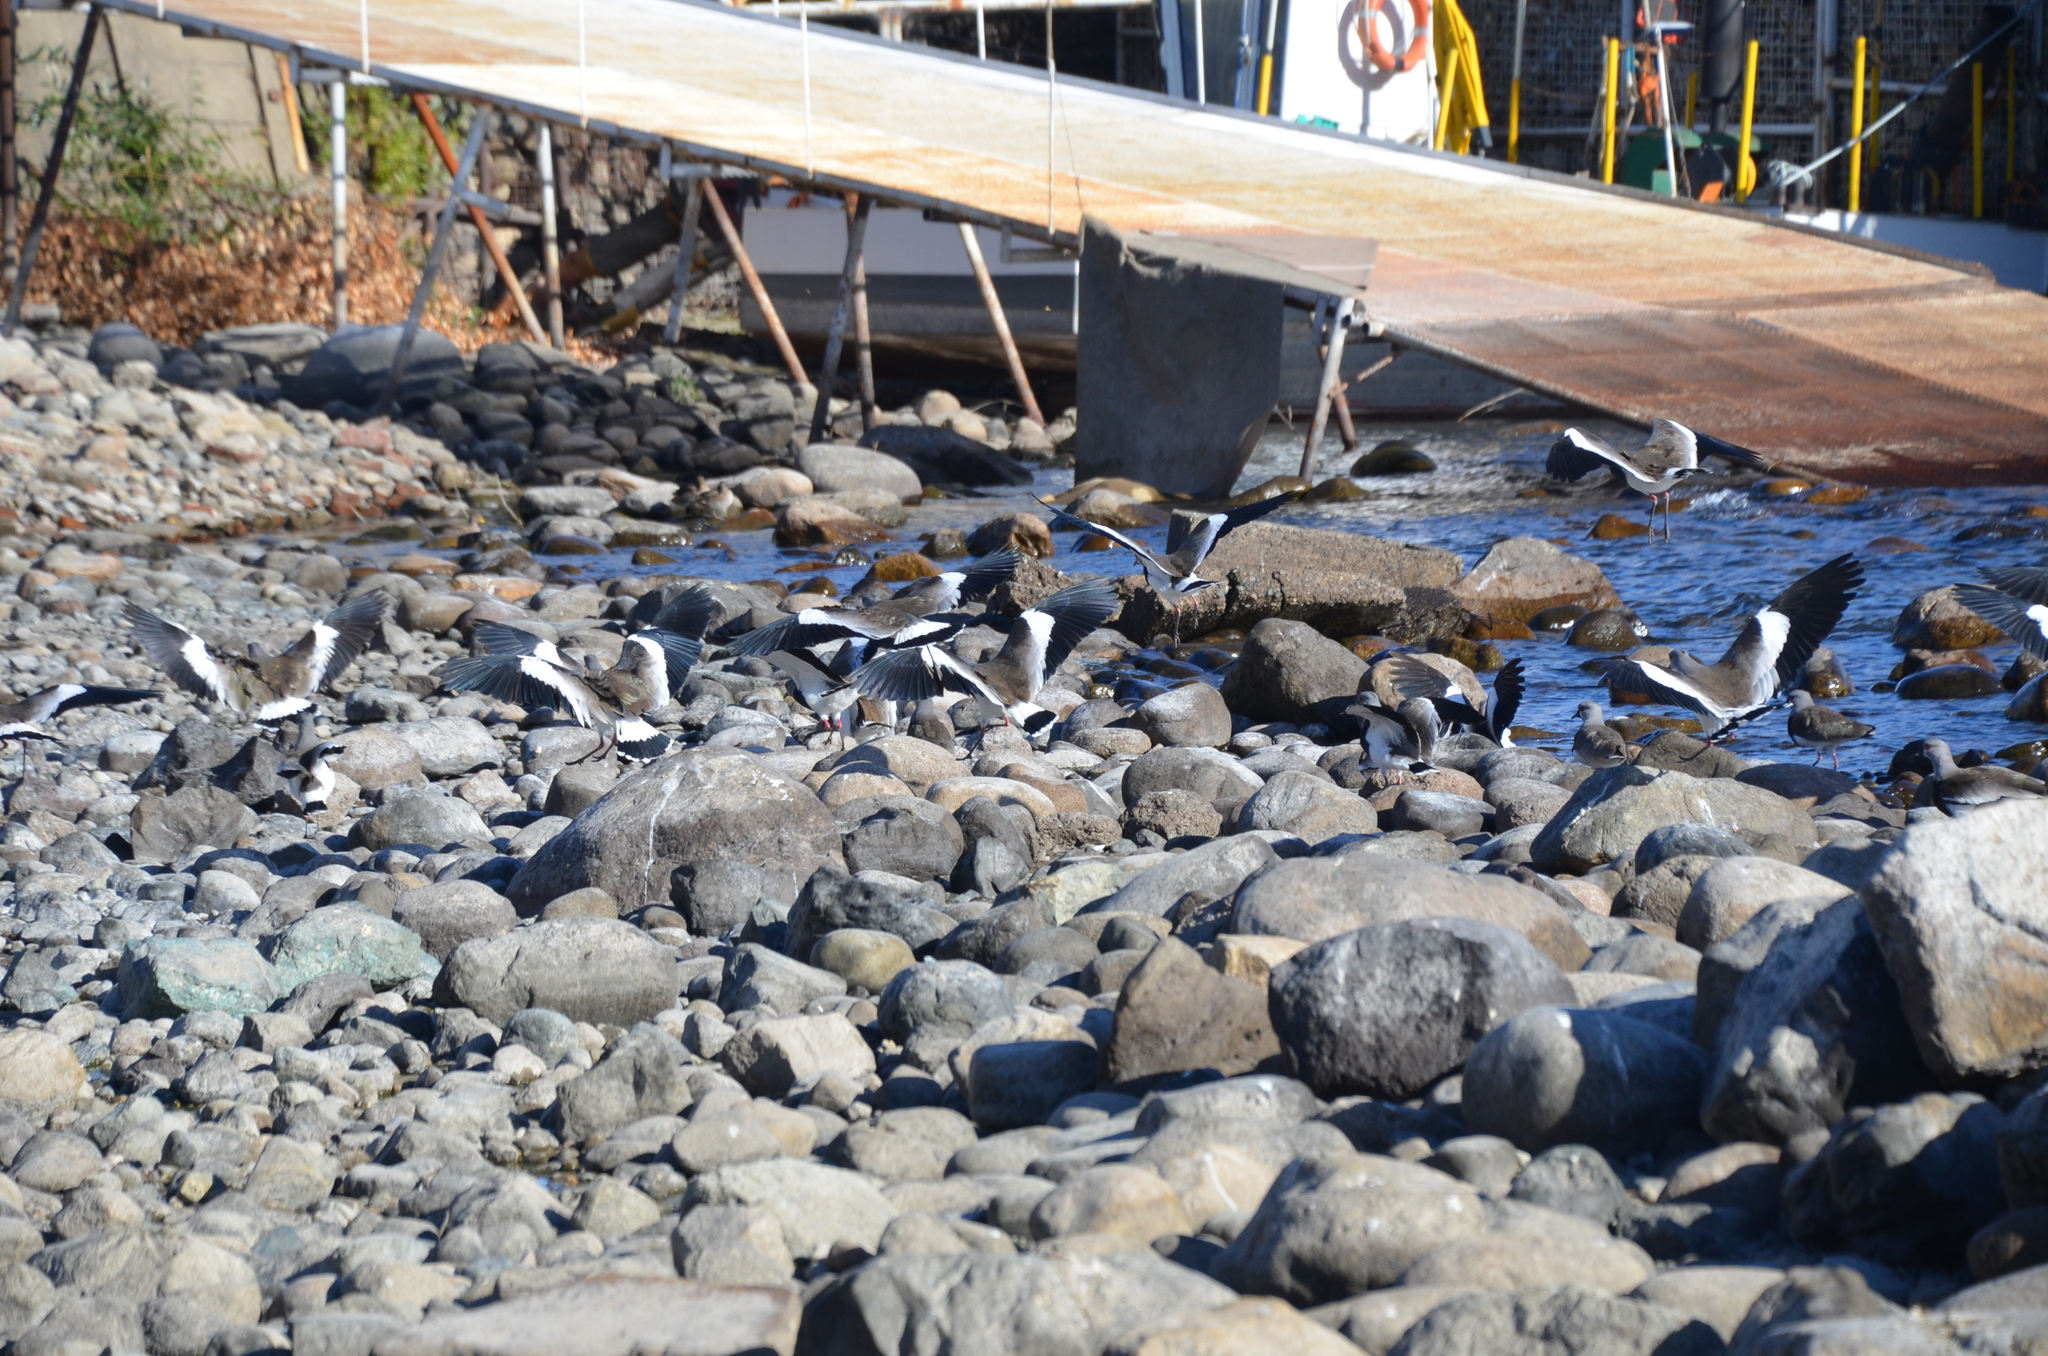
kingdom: Animalia
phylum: Chordata
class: Aves
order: Charadriiformes
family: Charadriidae
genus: Vanellus
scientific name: Vanellus chilensis
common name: Southern lapwing
